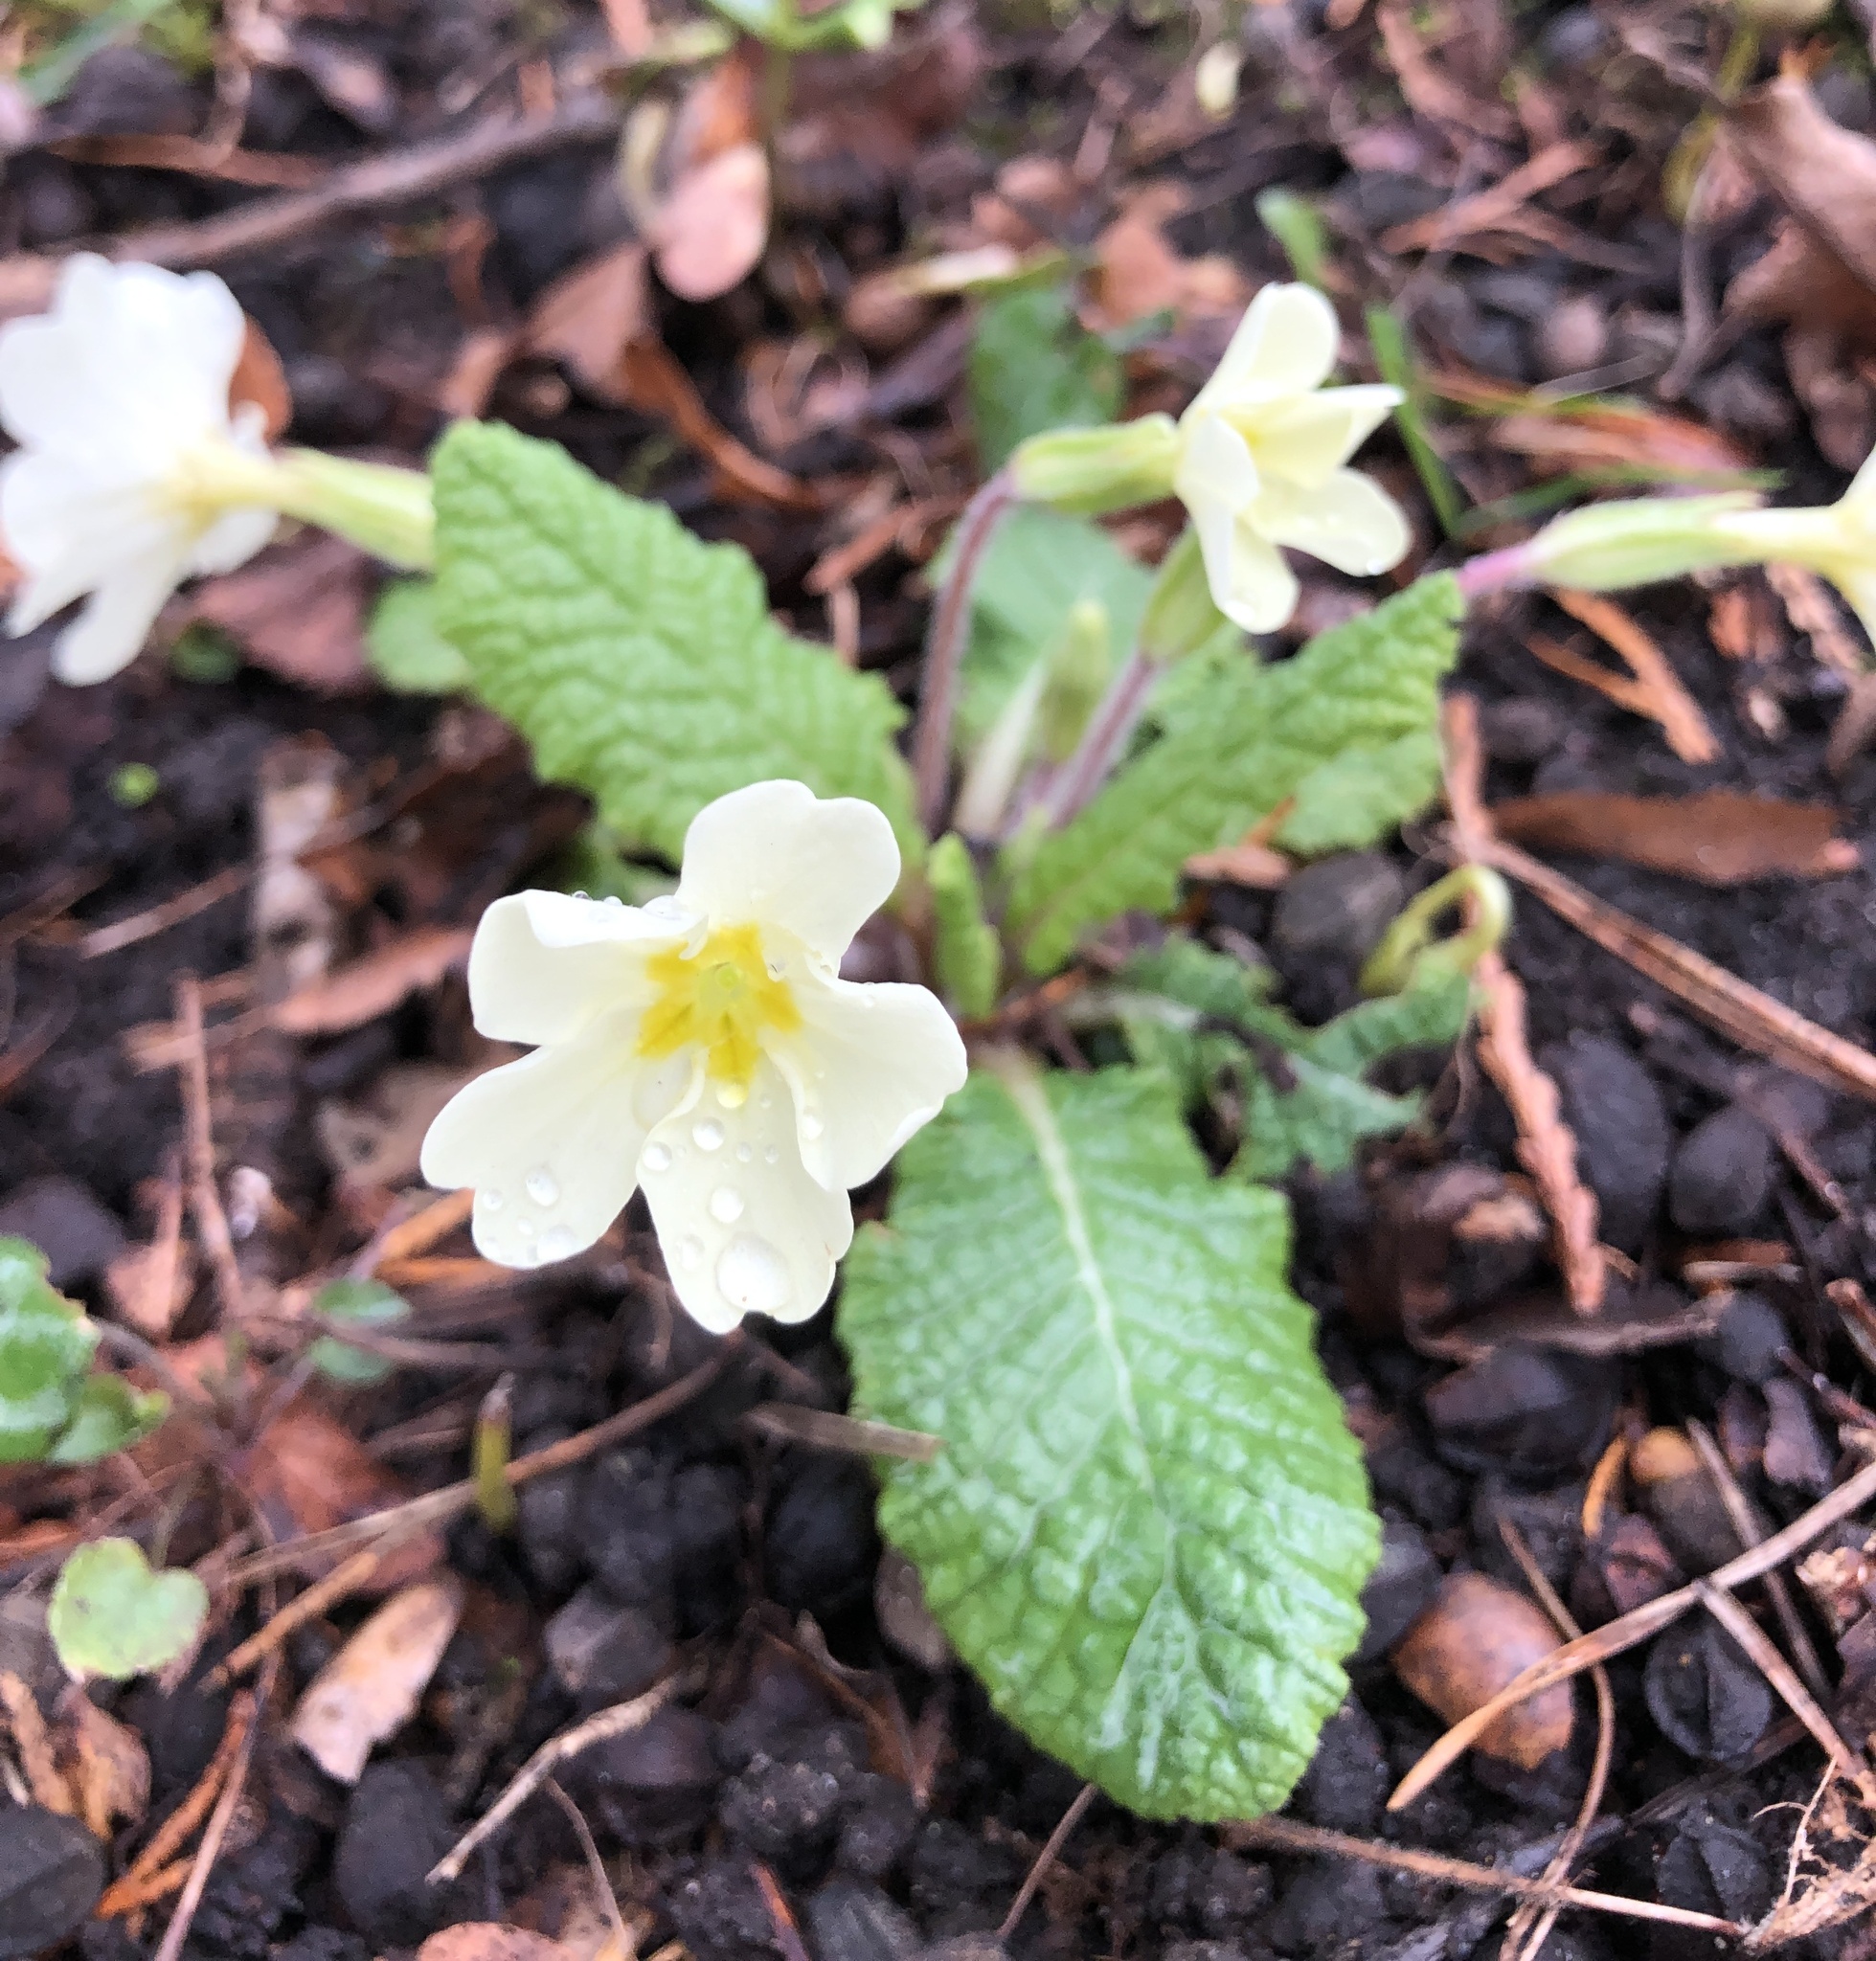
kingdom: Plantae
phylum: Tracheophyta
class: Magnoliopsida
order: Ericales
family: Primulaceae
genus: Primula
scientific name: Primula vulgaris
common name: Primrose
